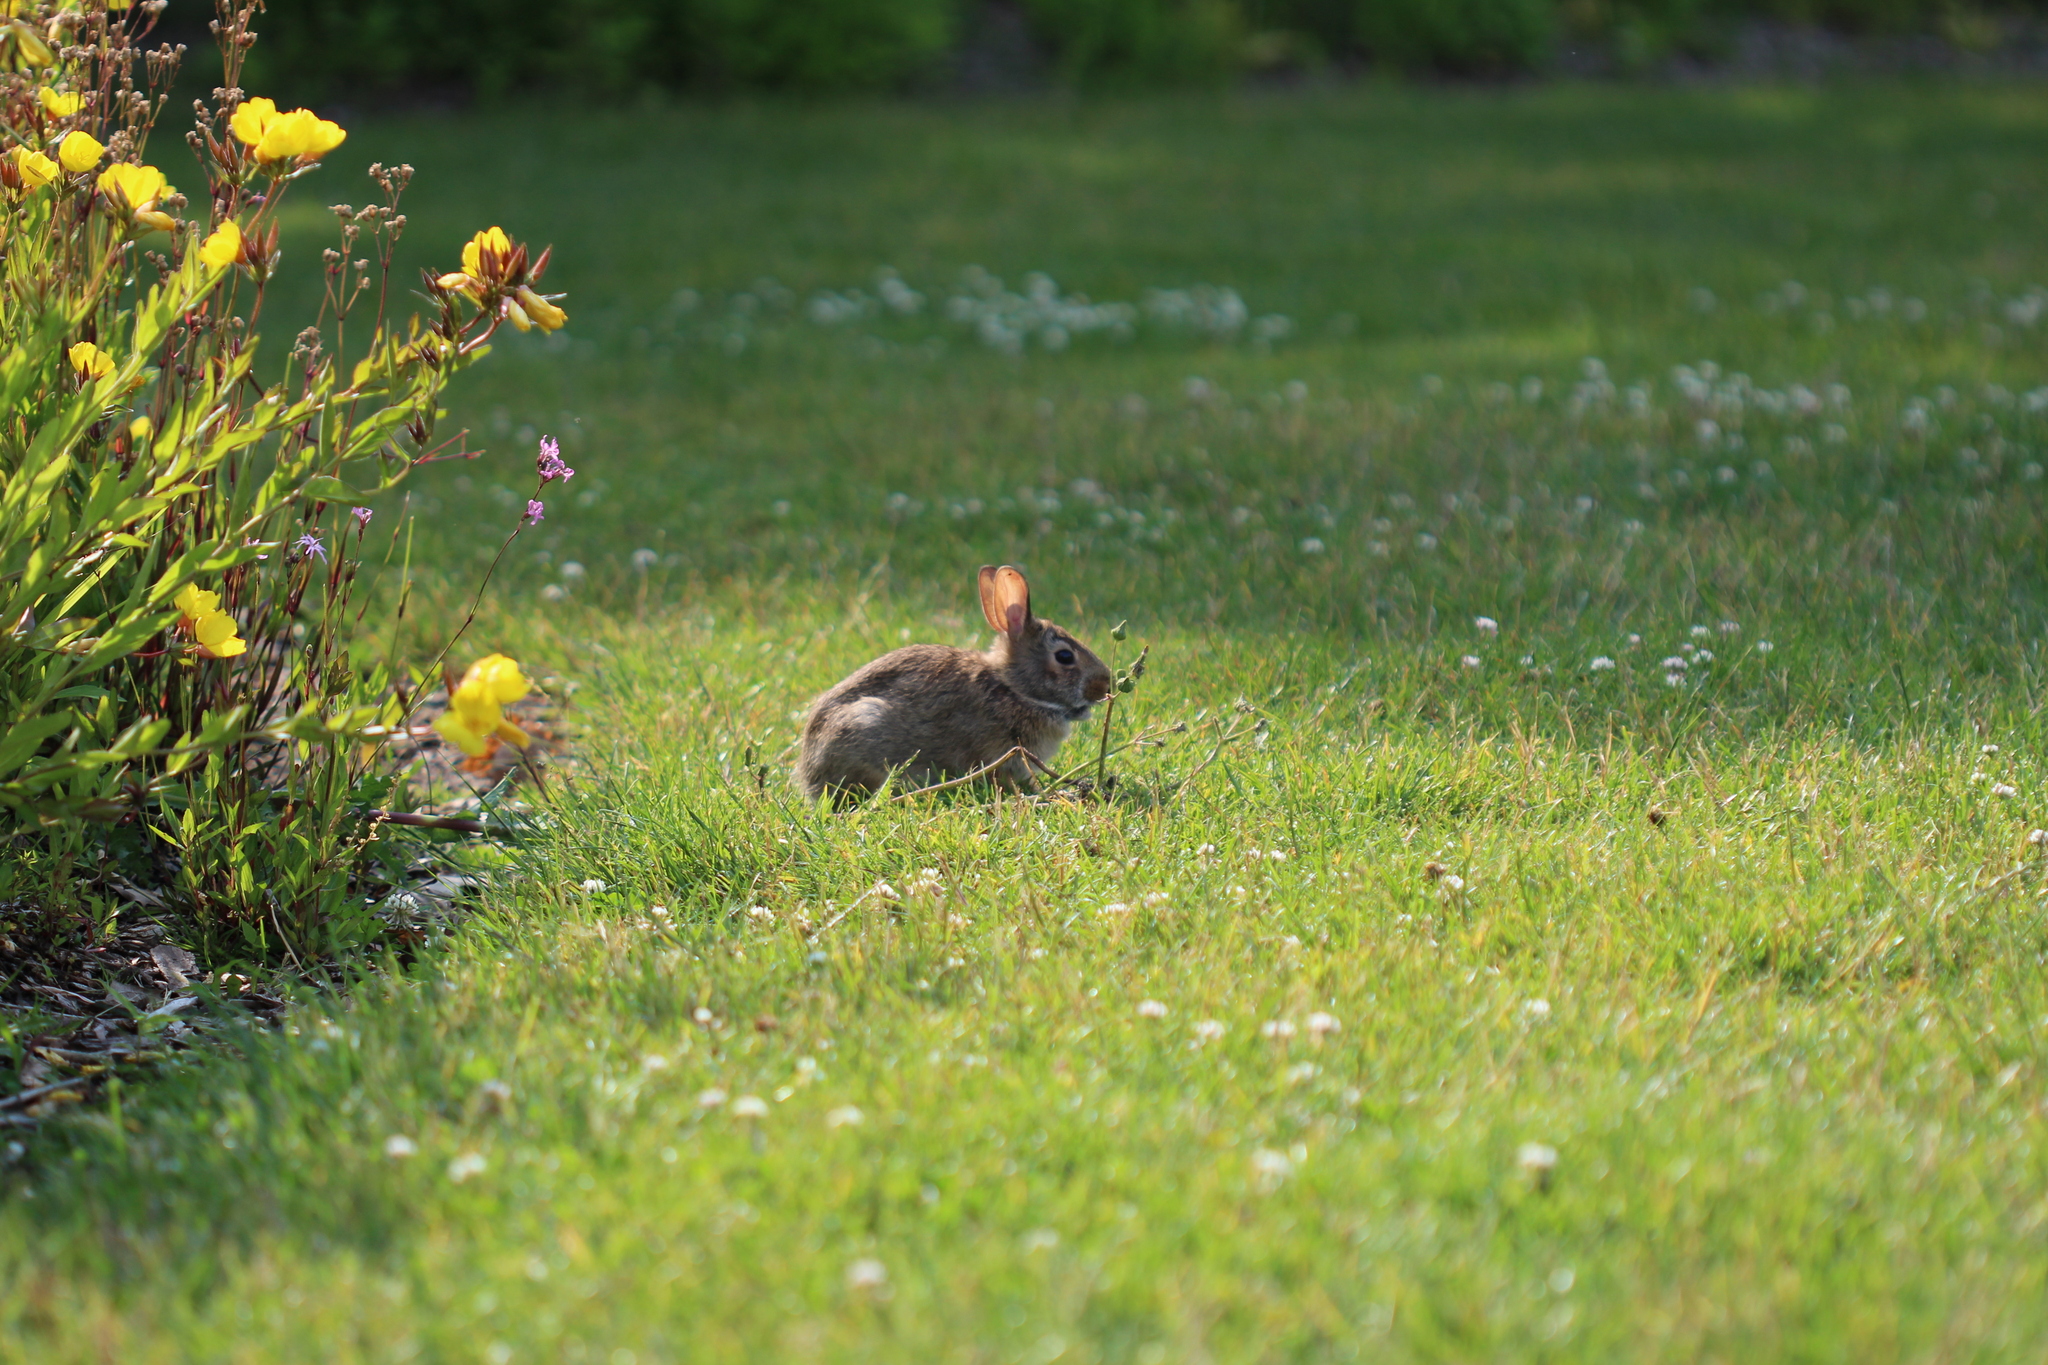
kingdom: Animalia
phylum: Chordata
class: Mammalia
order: Lagomorpha
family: Leporidae
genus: Sylvilagus
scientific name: Sylvilagus floridanus
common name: Eastern cottontail
